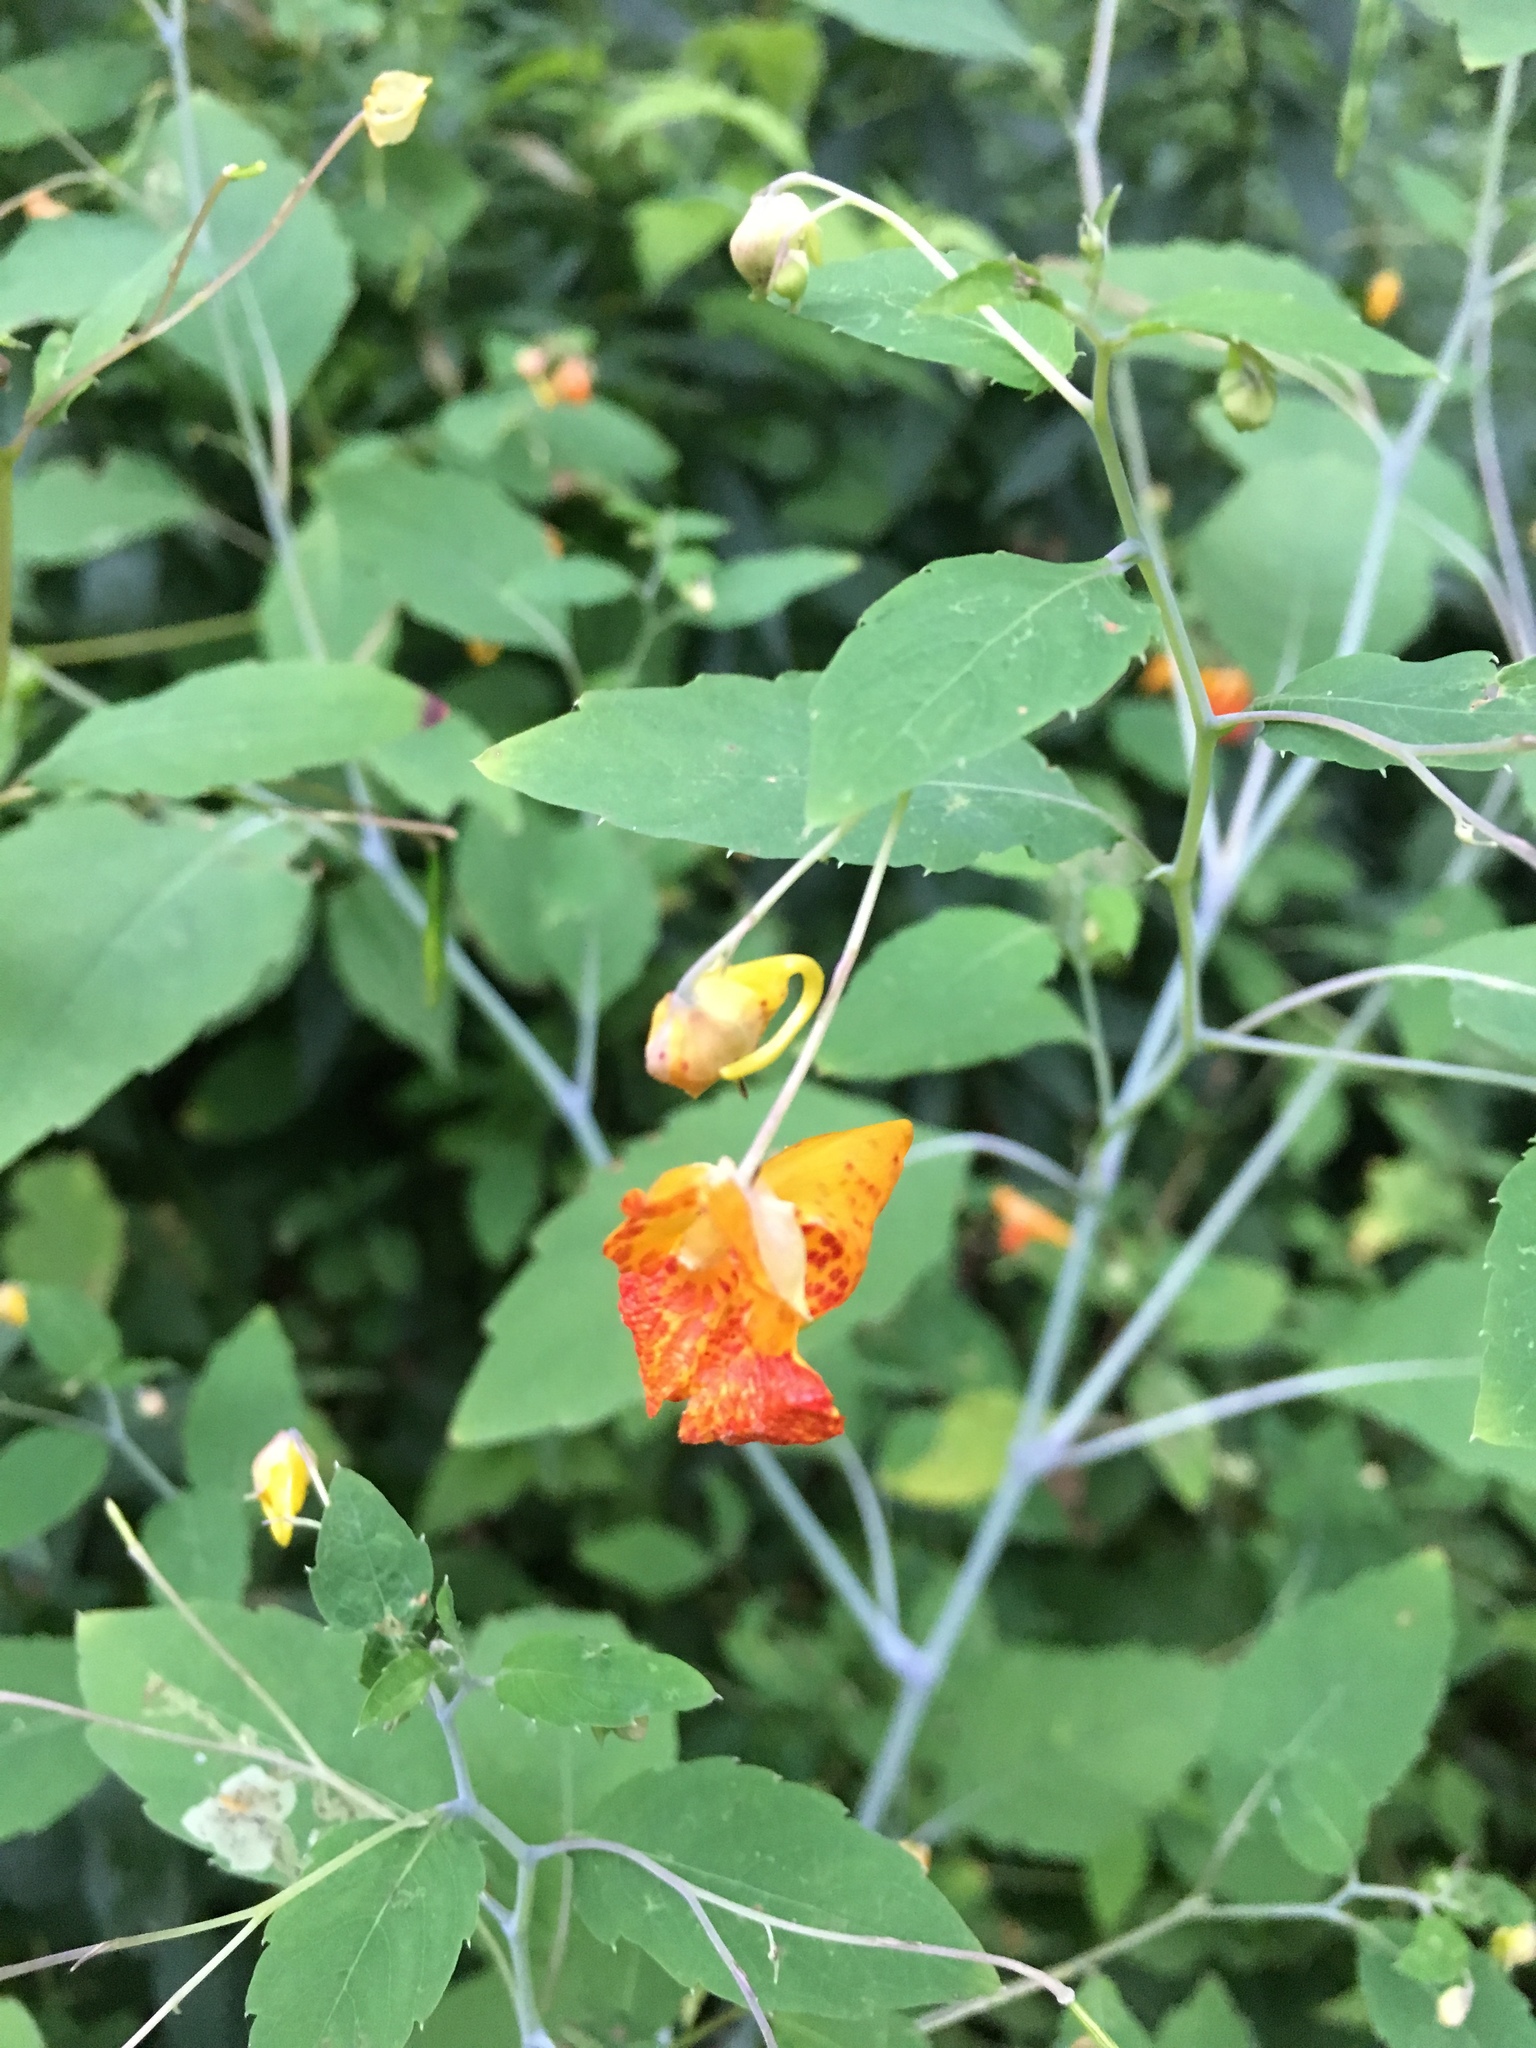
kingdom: Plantae
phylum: Tracheophyta
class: Magnoliopsida
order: Ericales
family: Balsaminaceae
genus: Impatiens
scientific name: Impatiens capensis
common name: Orange balsam
